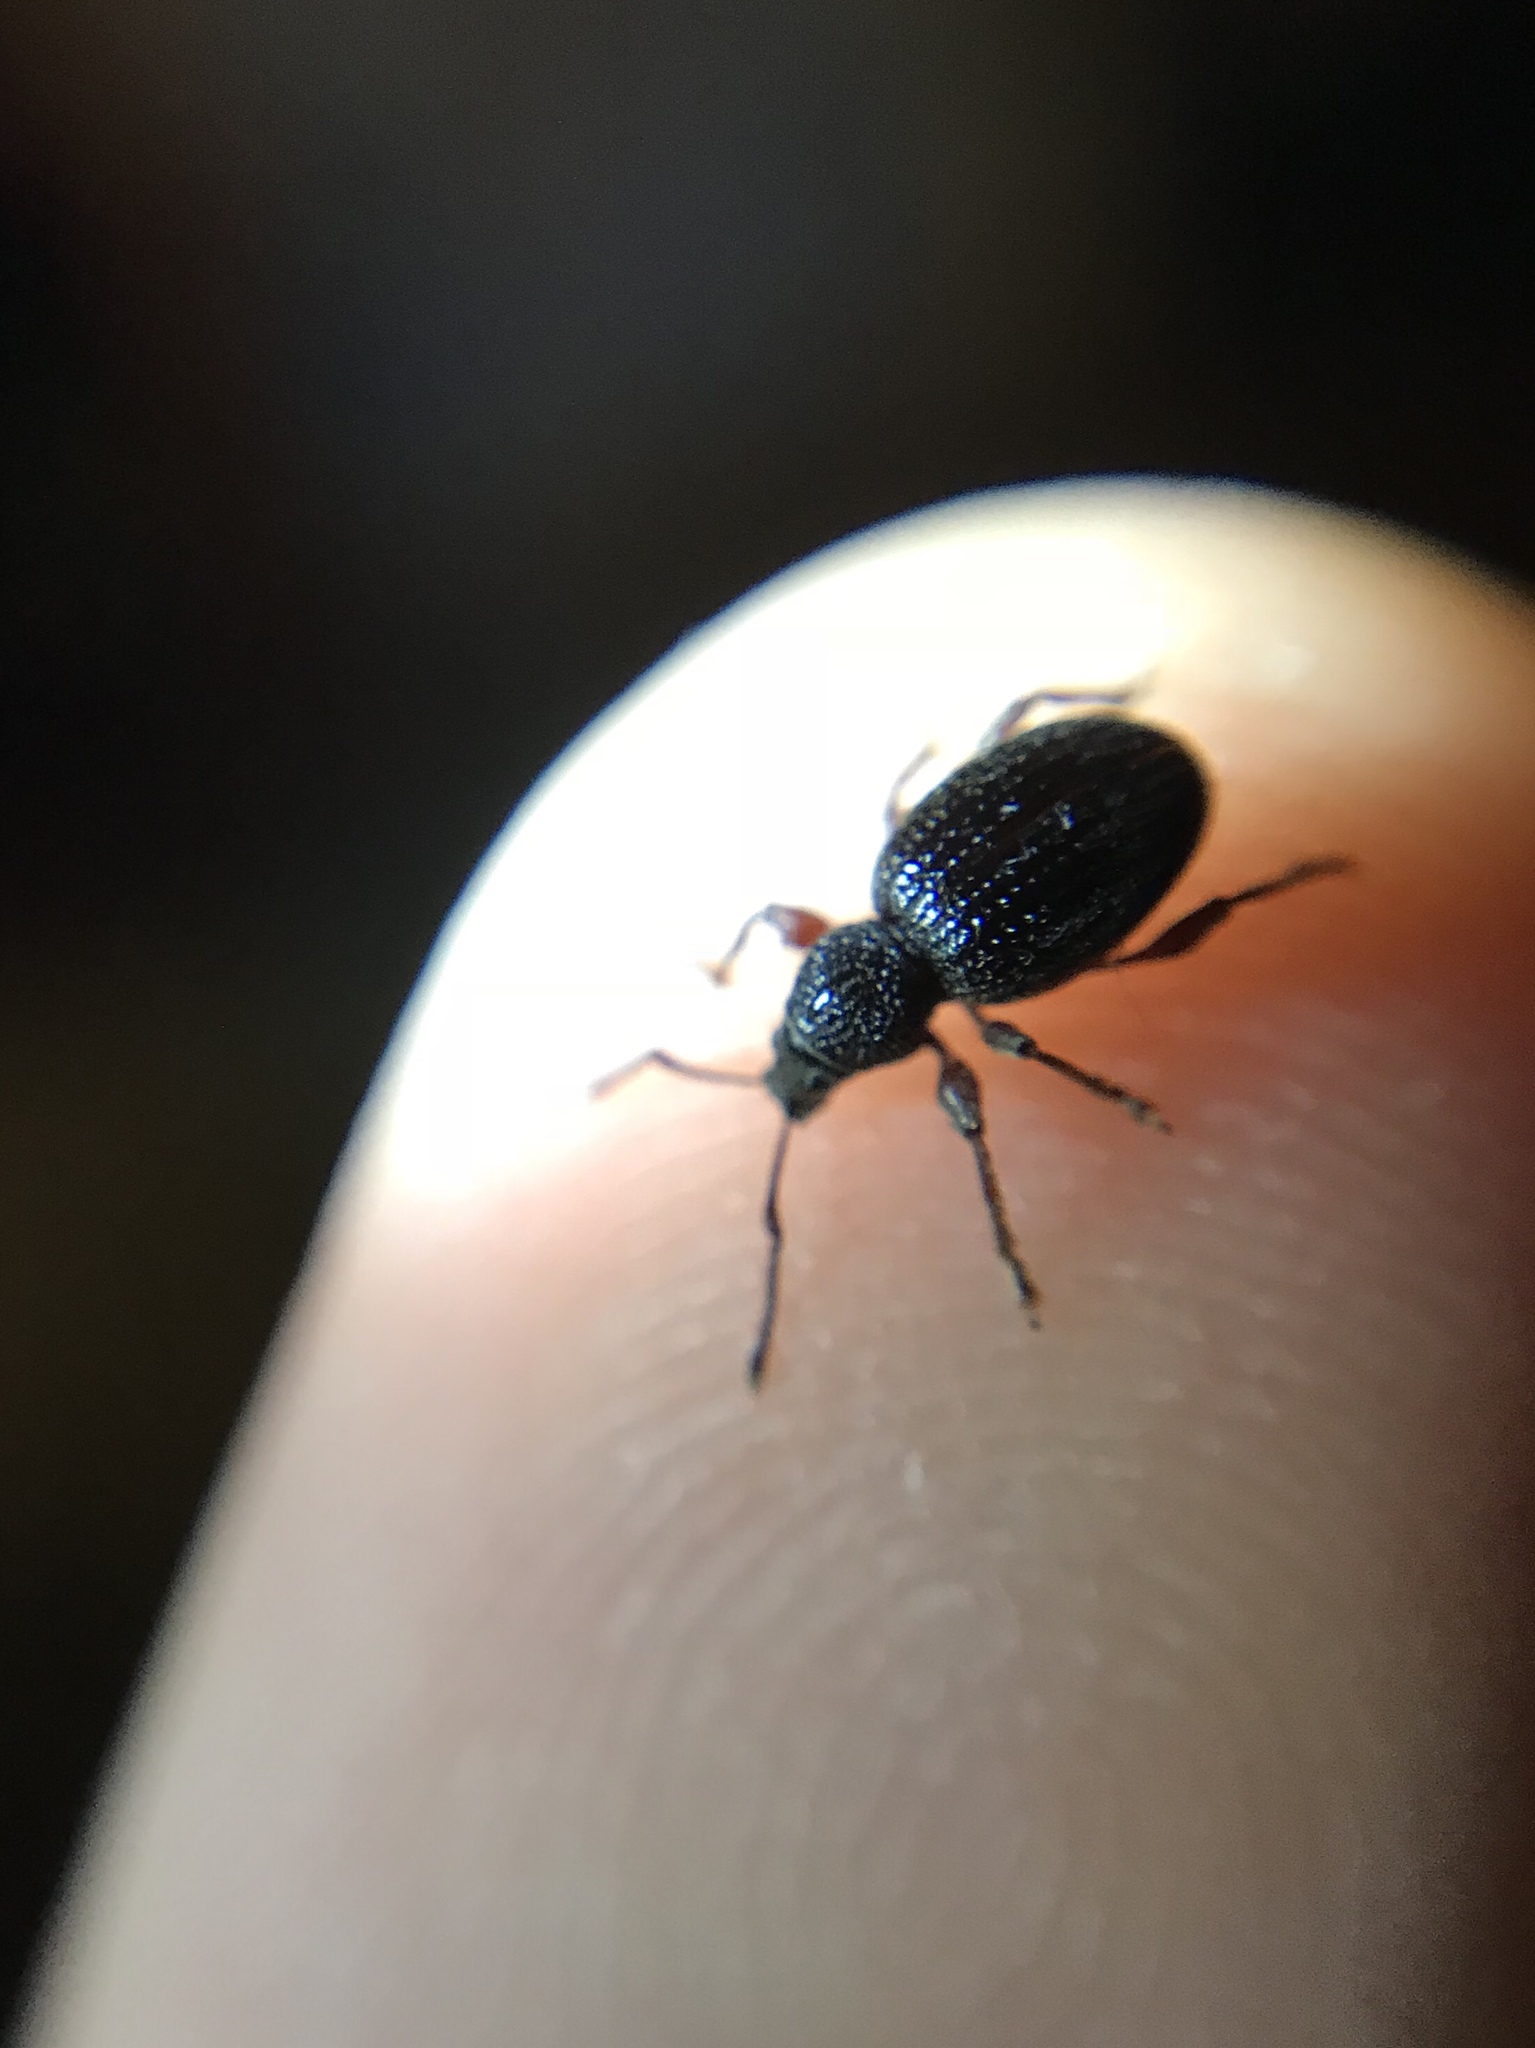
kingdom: Animalia
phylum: Arthropoda
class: Insecta
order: Coleoptera
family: Curculionidae
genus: Otiorhynchus
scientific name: Otiorhynchus ovatus
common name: Strawberry root weevil
